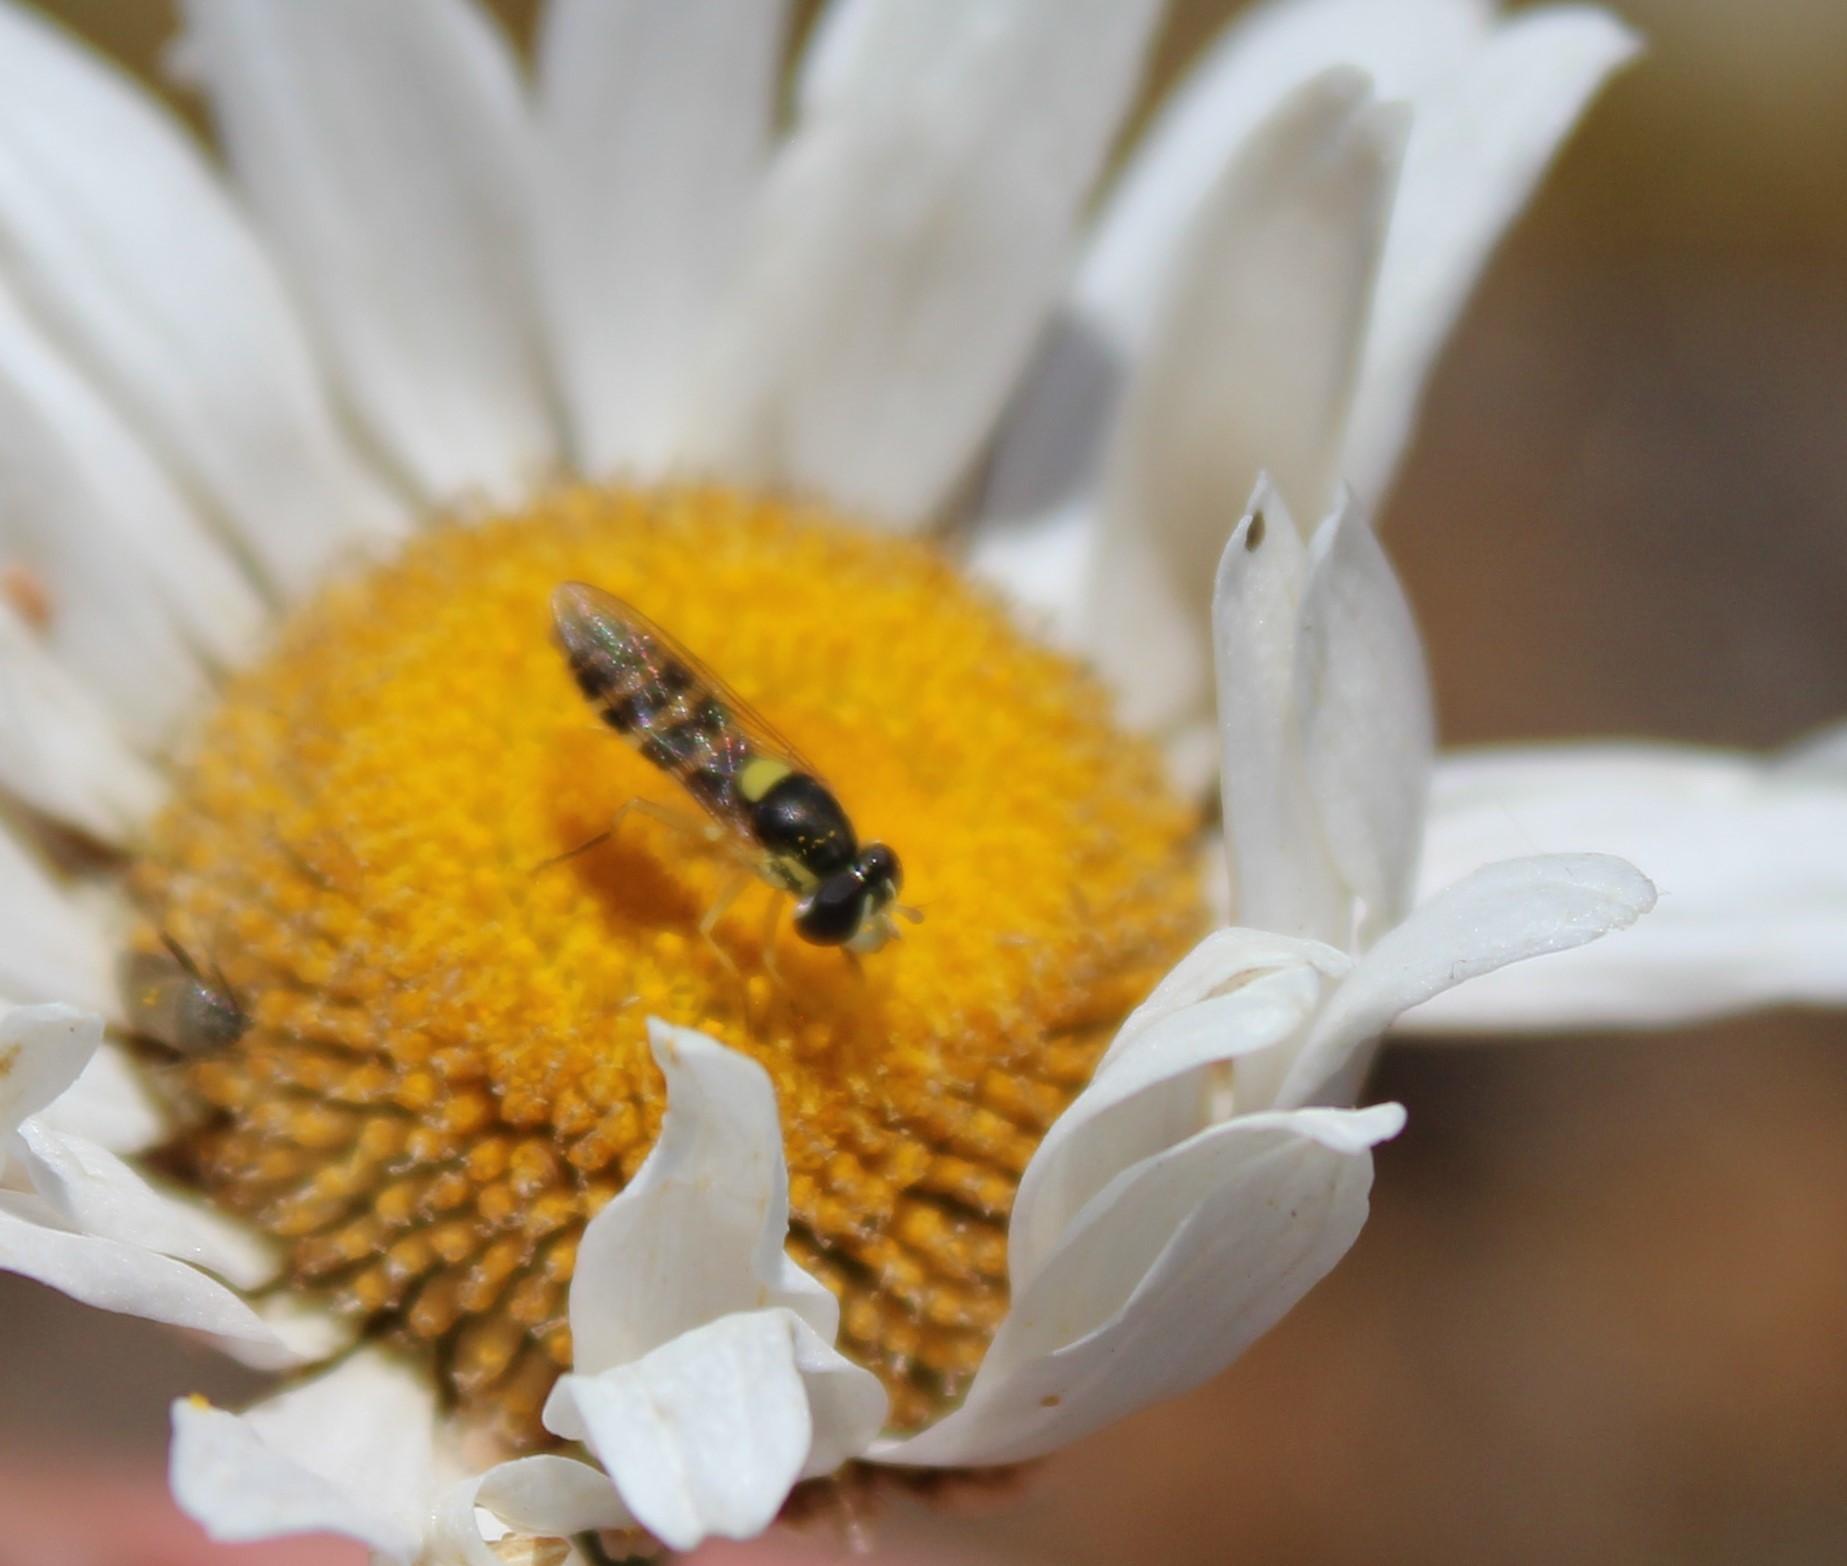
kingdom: Animalia
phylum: Arthropoda
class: Insecta
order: Diptera
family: Syrphidae
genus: Sphaerophoria
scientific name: Sphaerophoria sulphuripes
